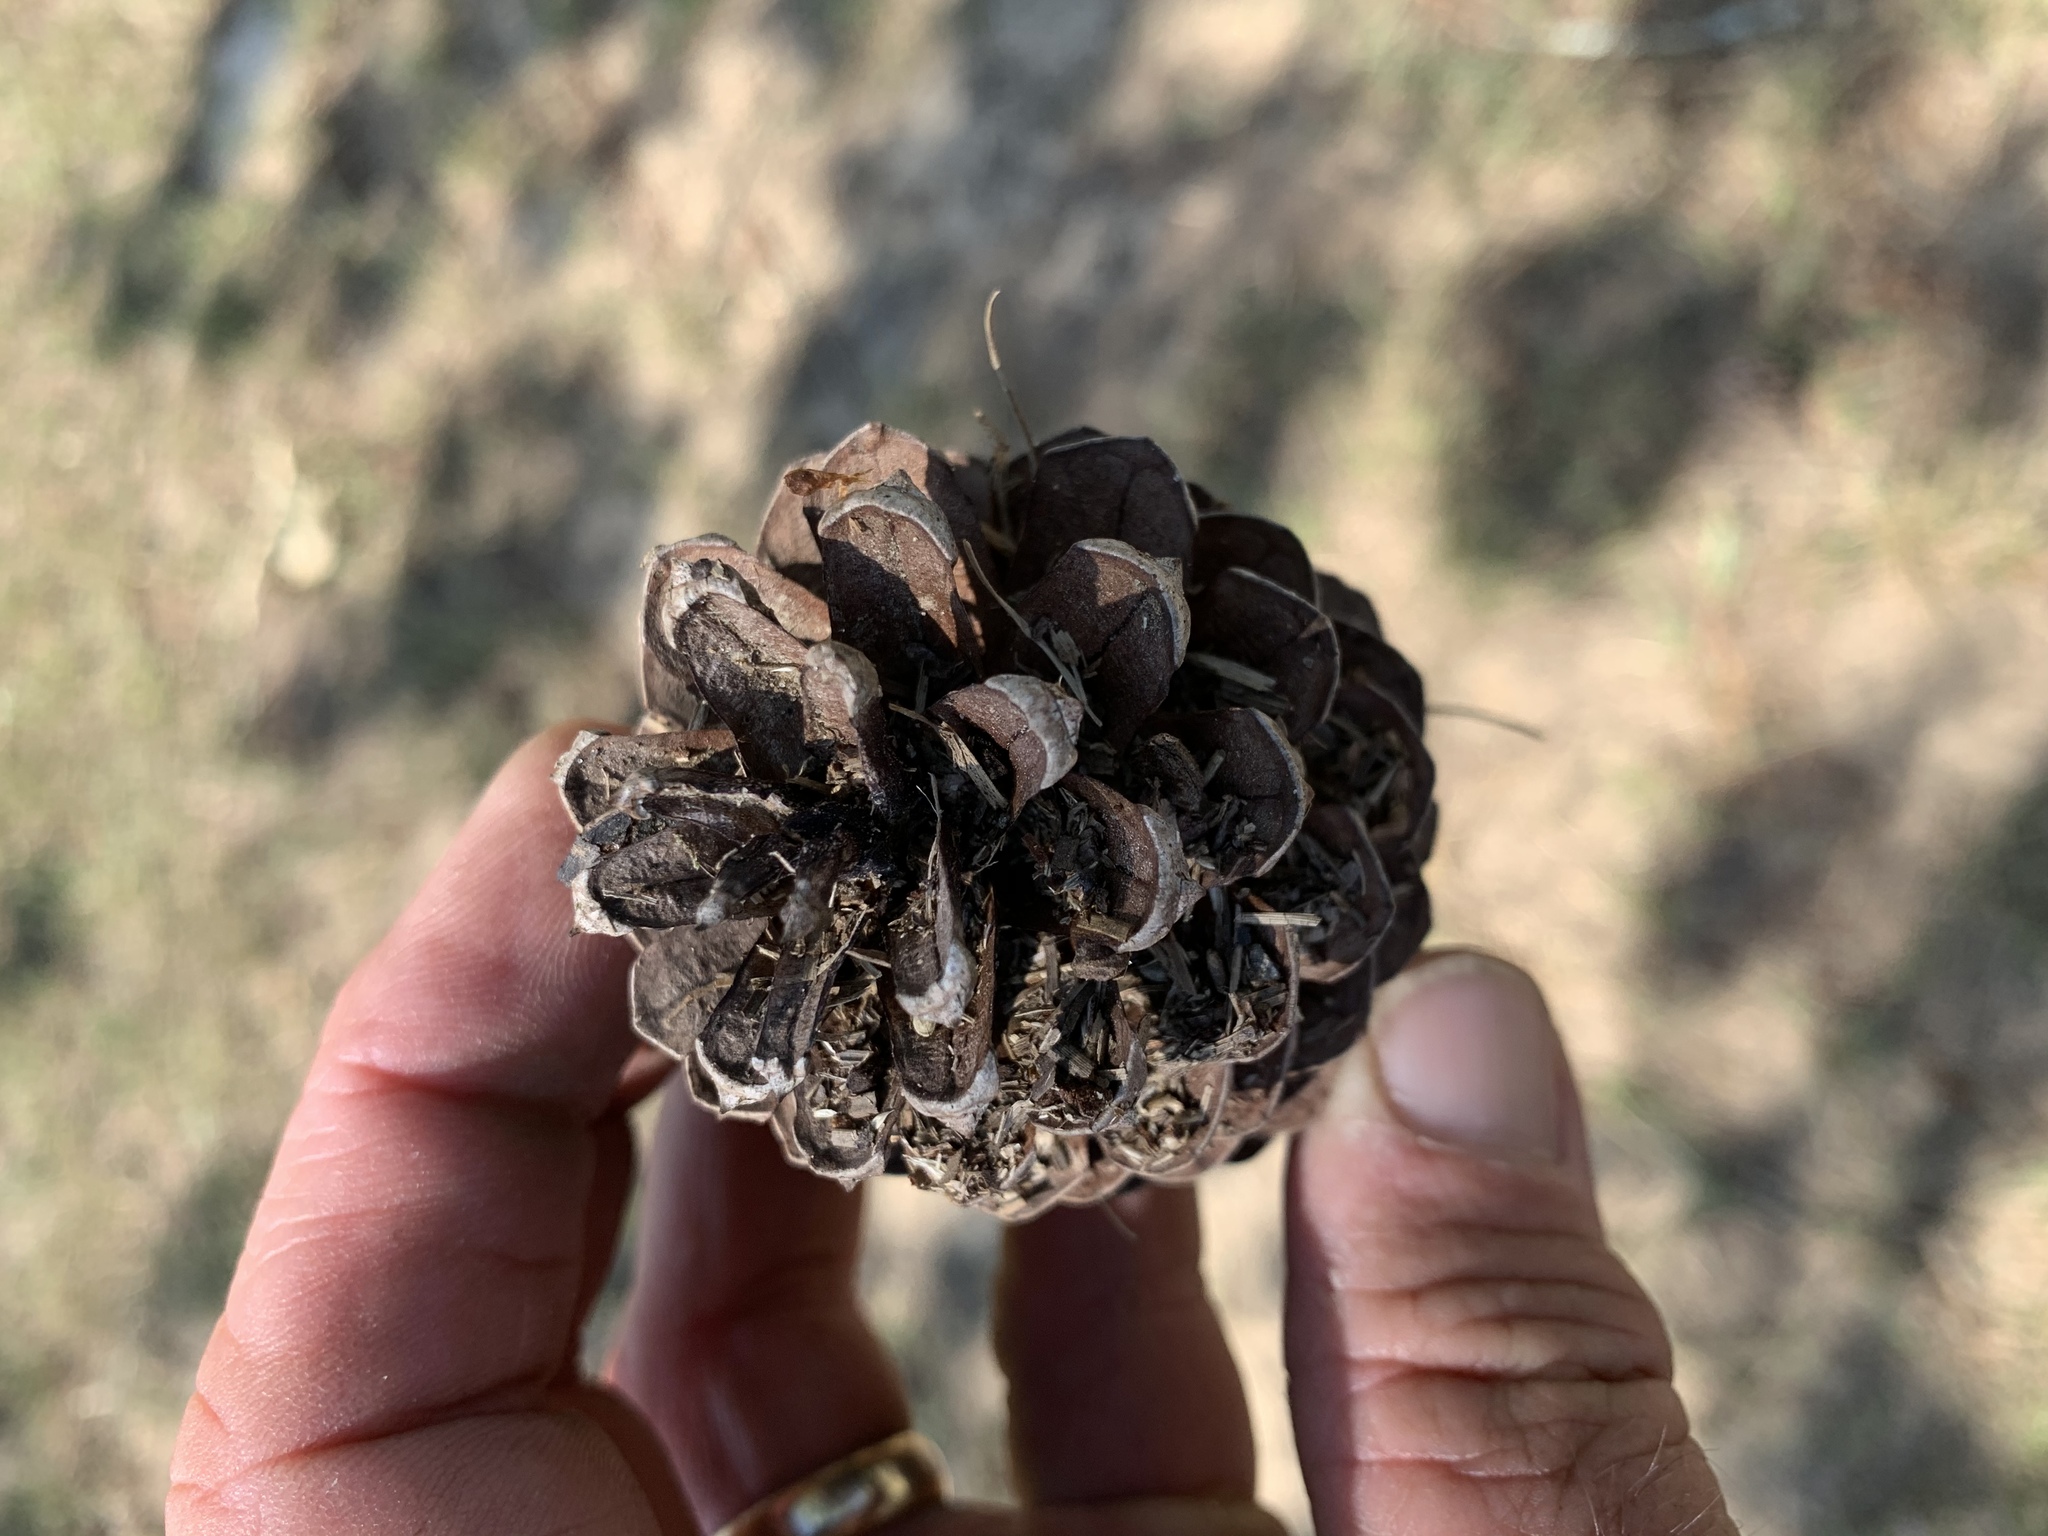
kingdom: Plantae
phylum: Tracheophyta
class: Pinopsida
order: Pinales
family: Pinaceae
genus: Pinus
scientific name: Pinus taeda
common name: Loblolly pine
